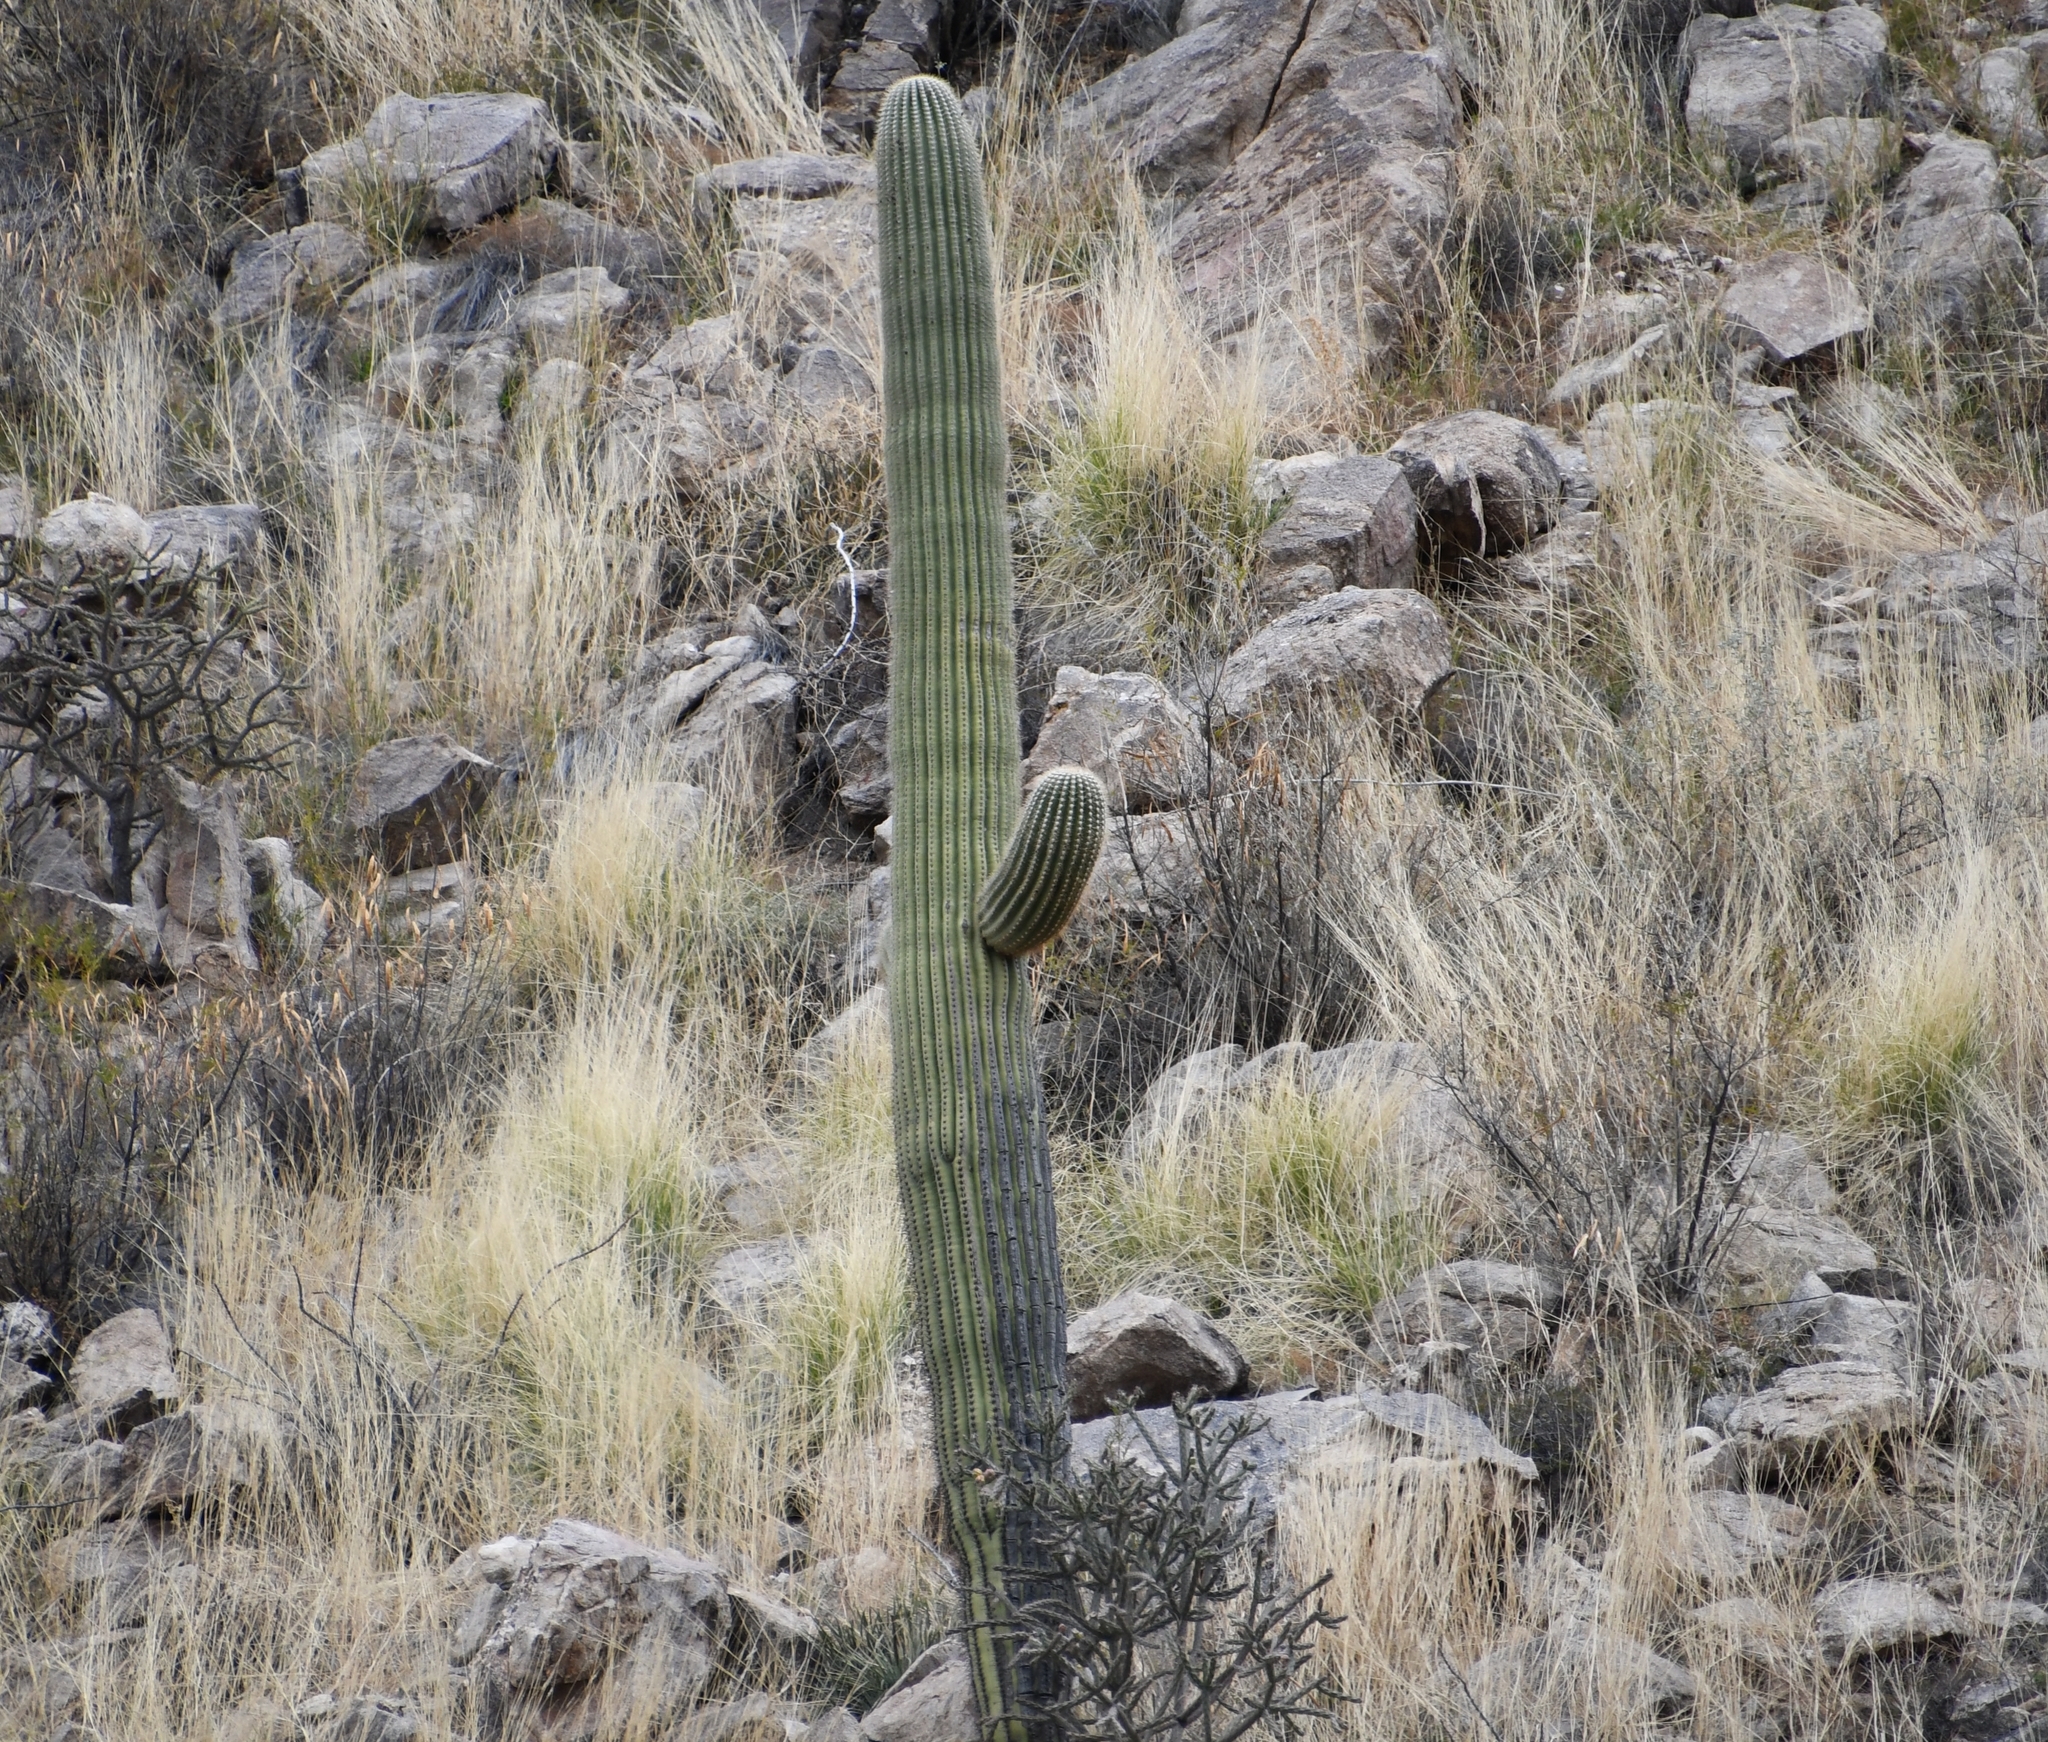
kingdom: Plantae
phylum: Tracheophyta
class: Magnoliopsida
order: Caryophyllales
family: Cactaceae
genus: Carnegiea
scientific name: Carnegiea gigantea
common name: Saguaro
